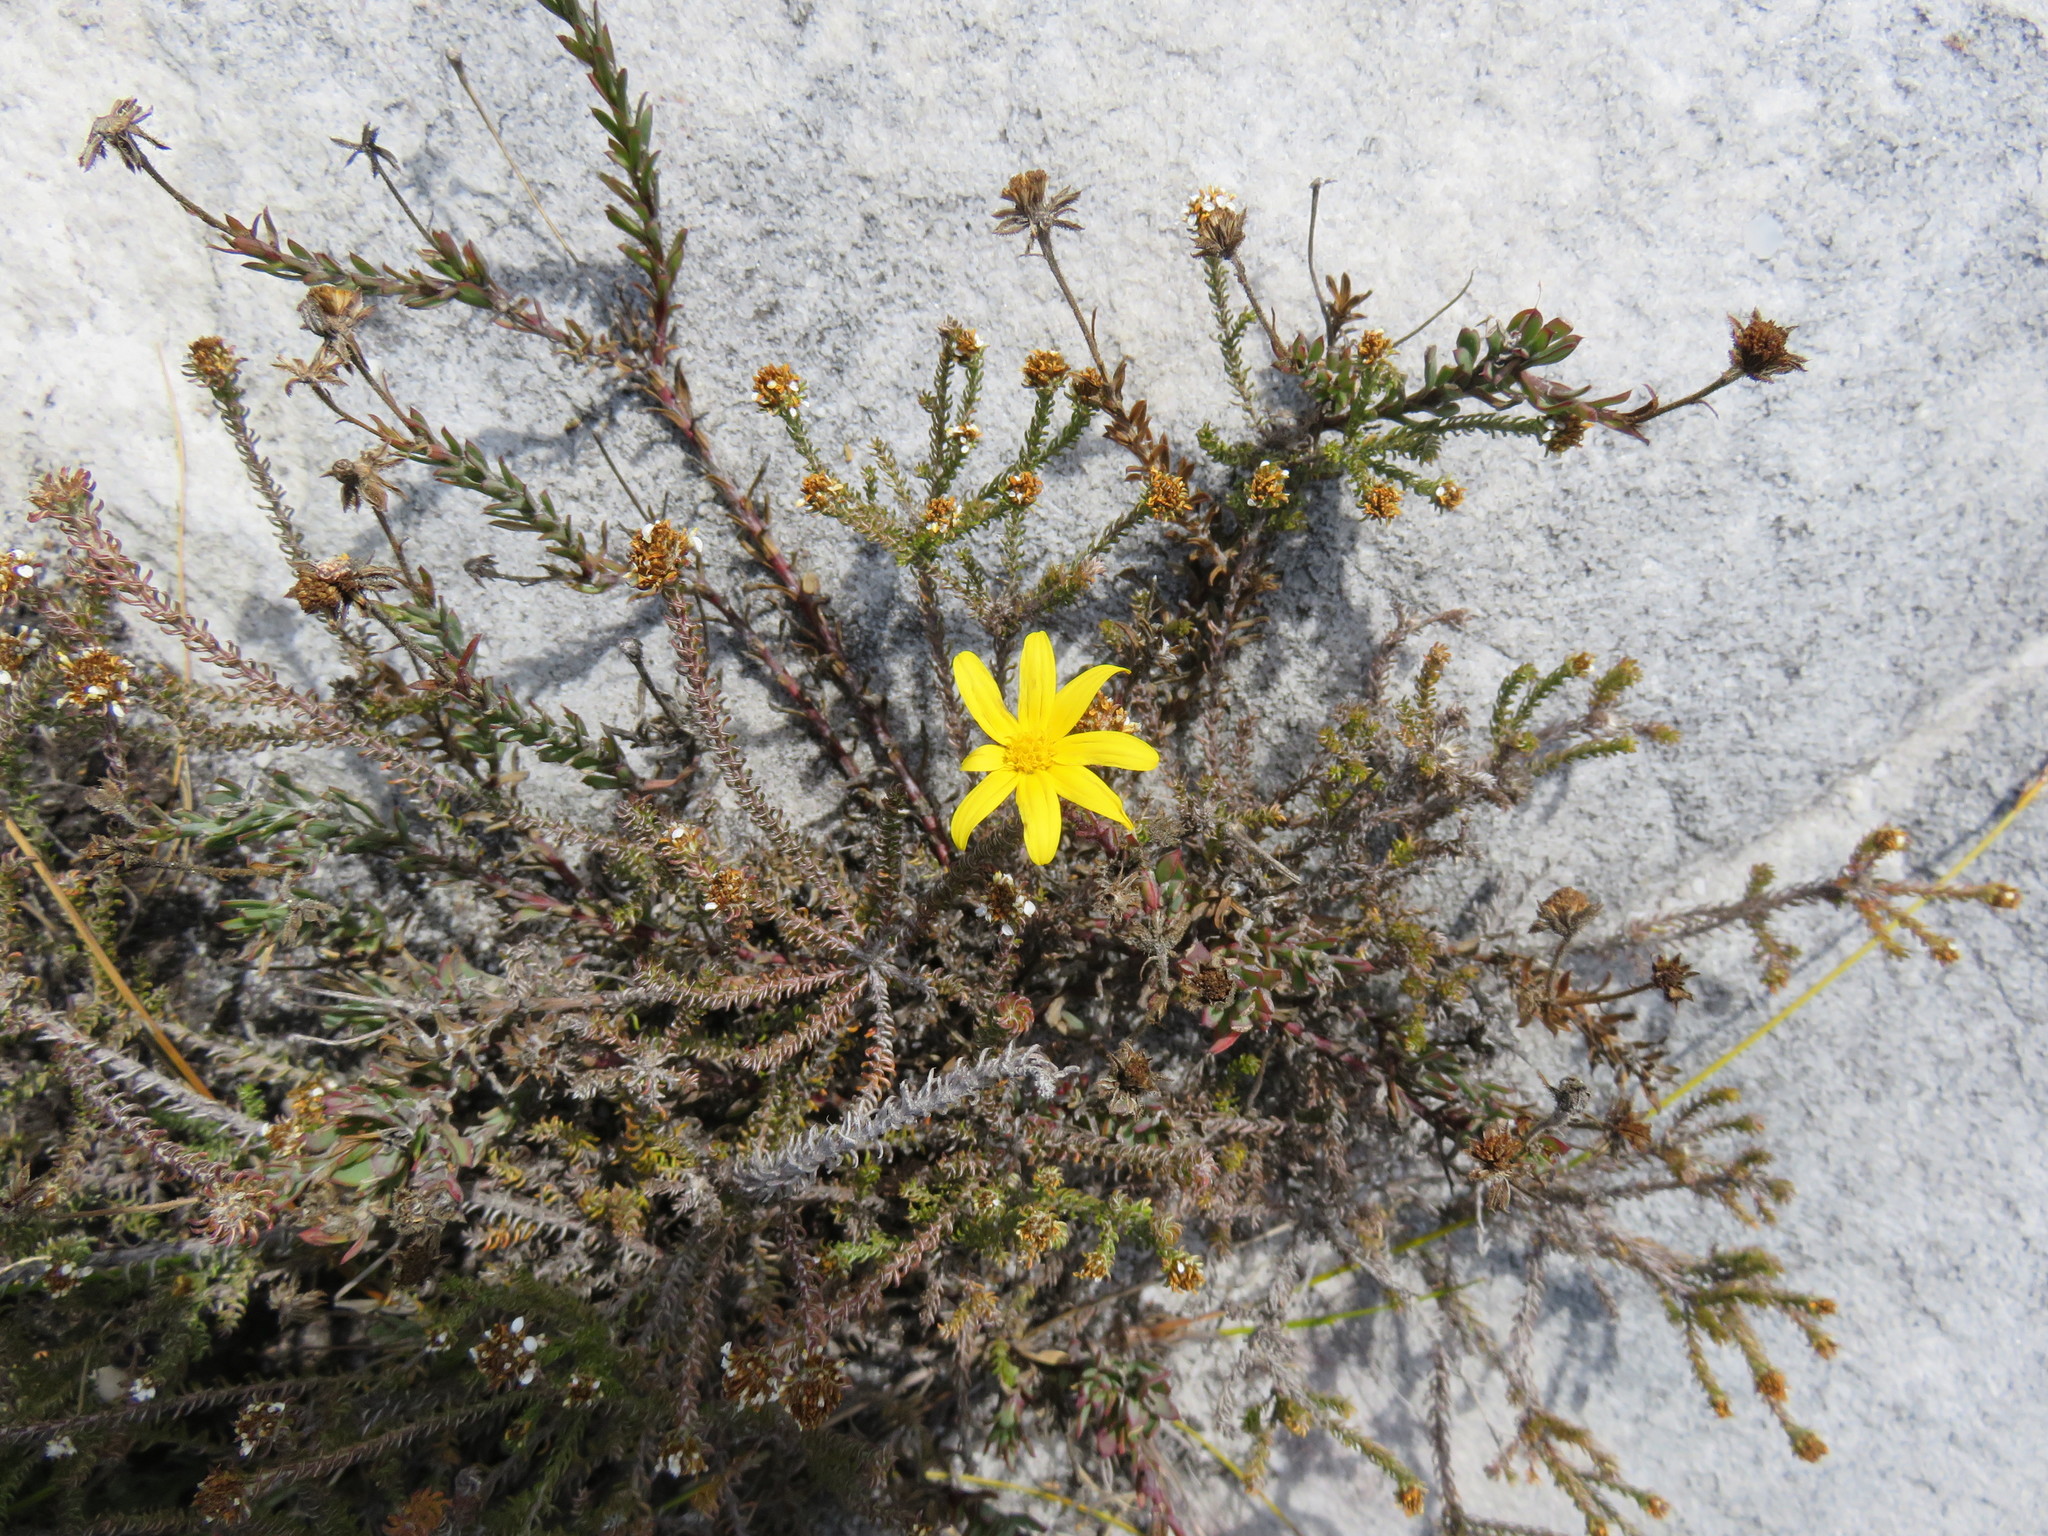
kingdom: Plantae
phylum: Tracheophyta
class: Magnoliopsida
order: Asterales
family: Asteraceae
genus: Osteospermum
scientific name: Osteospermum polygaloides
